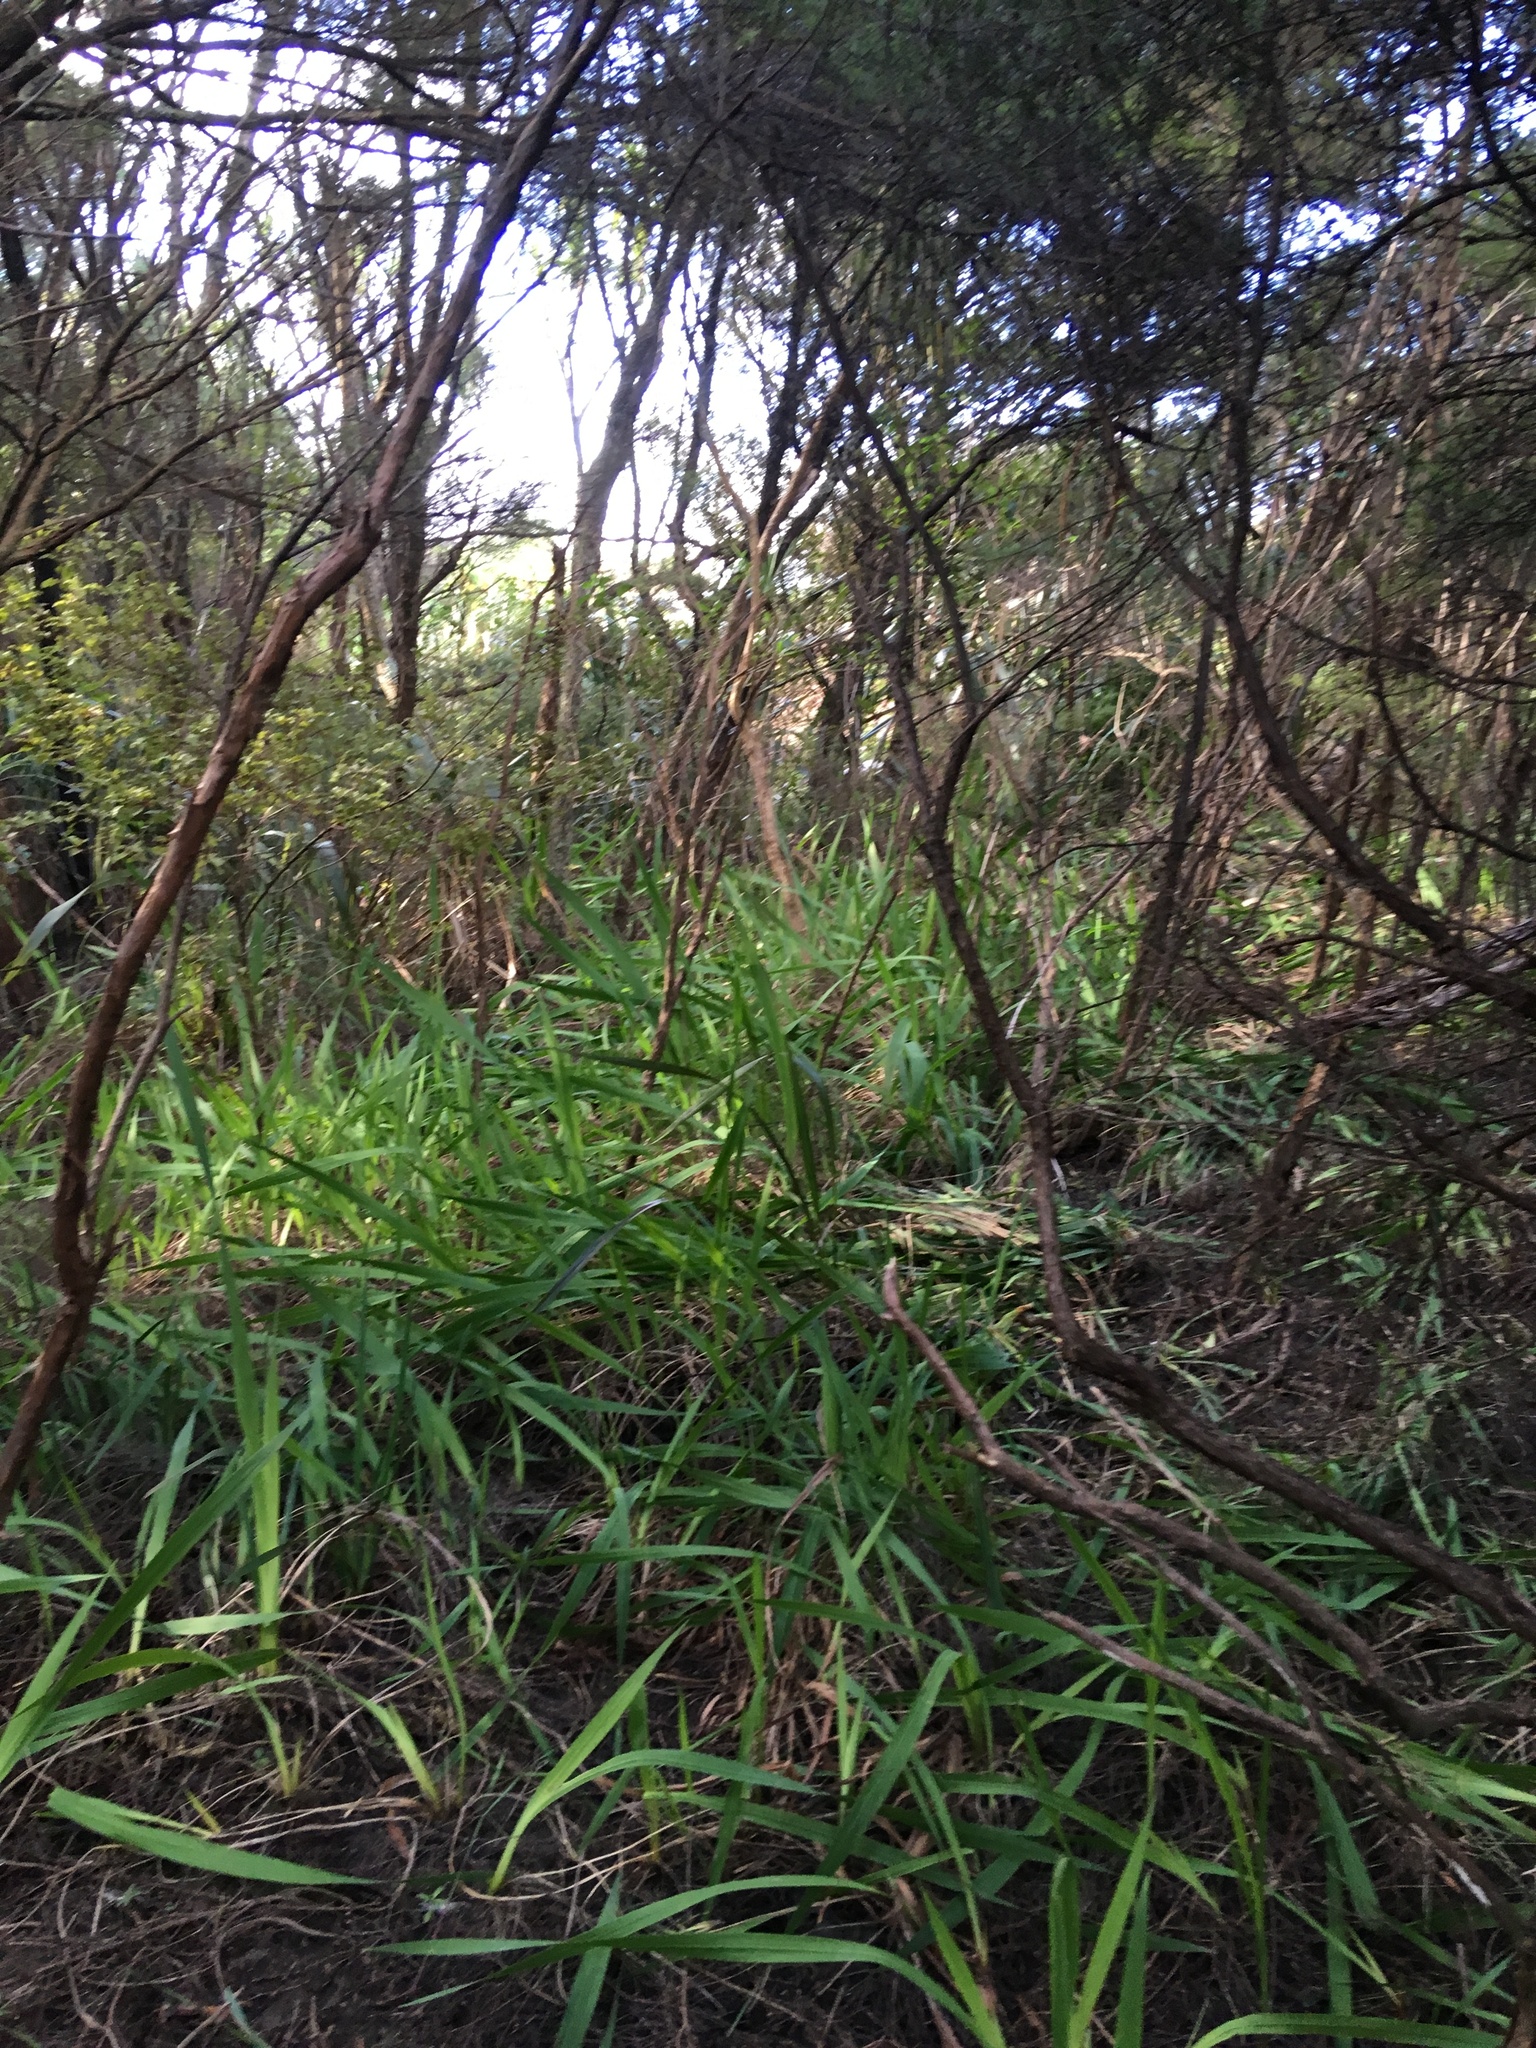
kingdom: Plantae
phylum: Tracheophyta
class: Magnoliopsida
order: Myrtales
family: Myrtaceae
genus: Leptospermum
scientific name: Leptospermum scoparium
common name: Broom tea-tree
